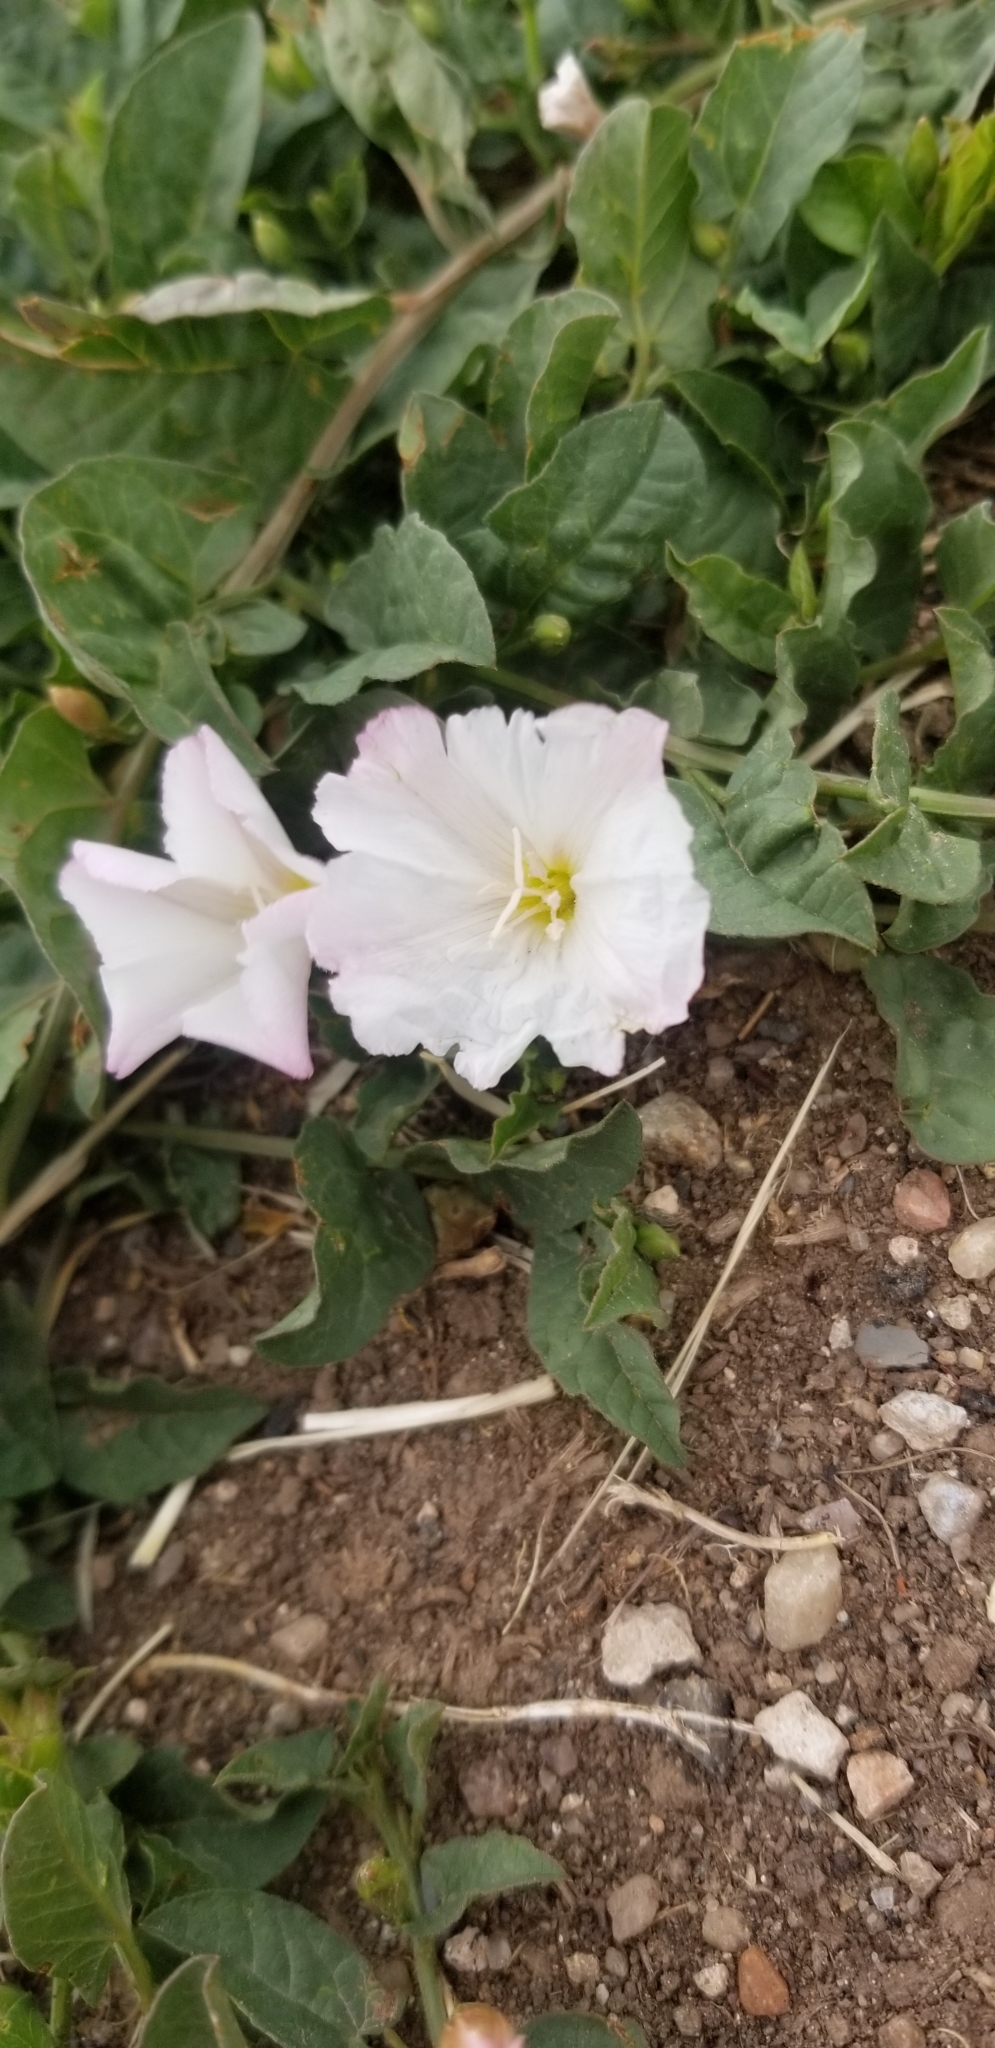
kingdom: Plantae
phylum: Tracheophyta
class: Magnoliopsida
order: Solanales
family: Convolvulaceae
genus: Convolvulus
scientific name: Convolvulus arvensis
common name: Field bindweed
